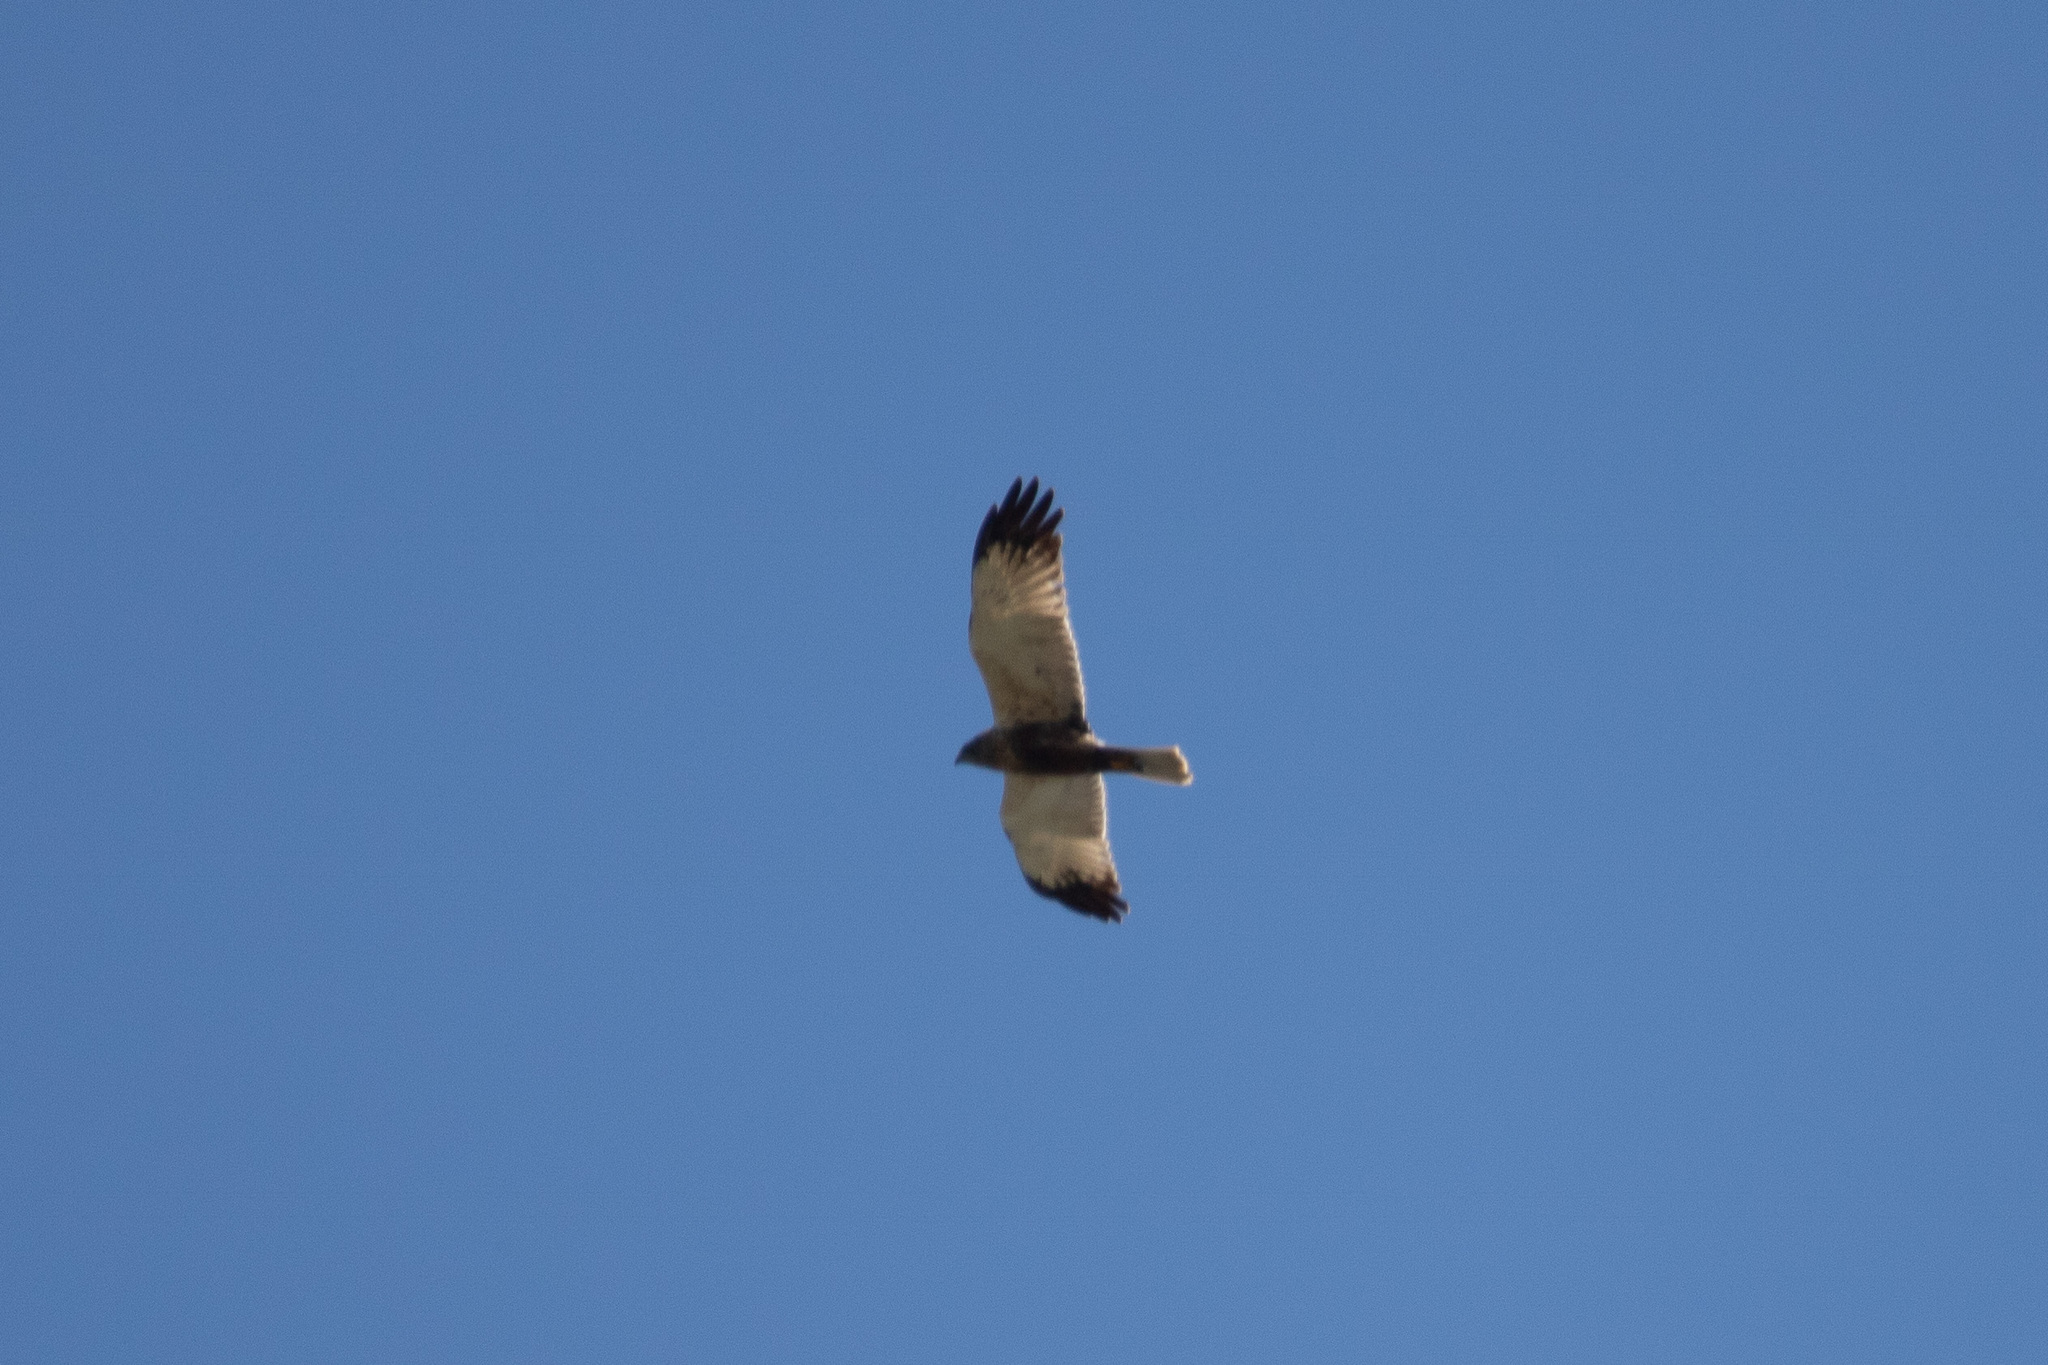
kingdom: Animalia
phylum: Chordata
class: Aves
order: Accipitriformes
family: Accipitridae
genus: Circus
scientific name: Circus aeruginosus
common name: Western marsh harrier
